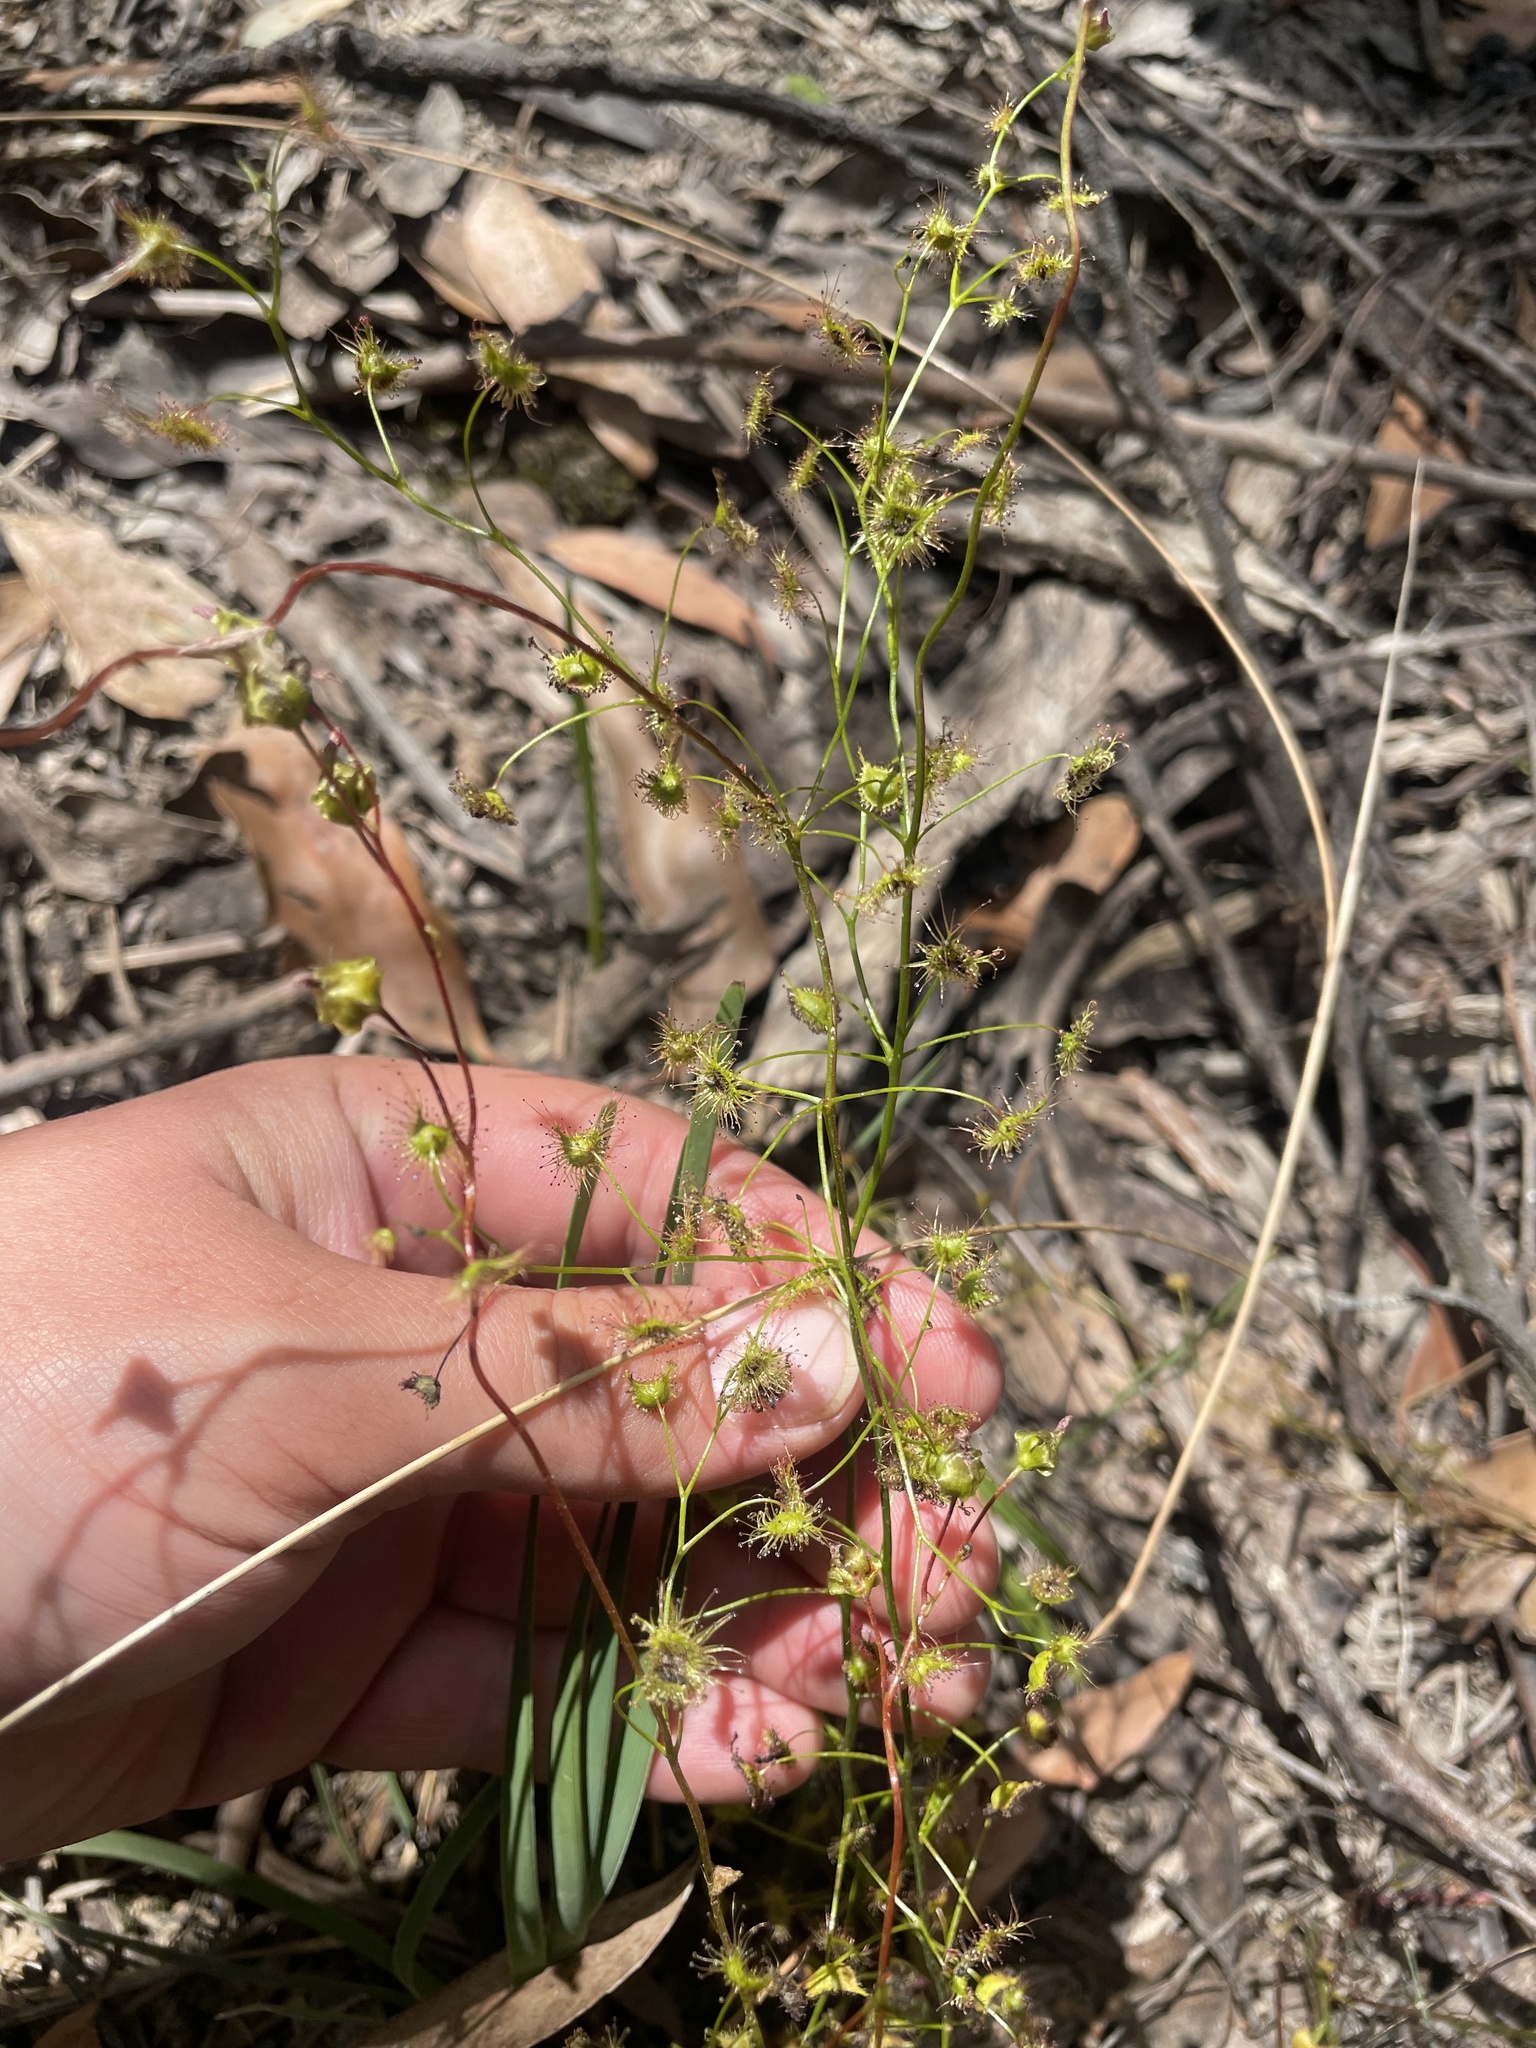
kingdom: Plantae
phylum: Tracheophyta
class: Magnoliopsida
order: Caryophyllales
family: Droseraceae
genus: Drosera
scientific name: Drosera peltata
